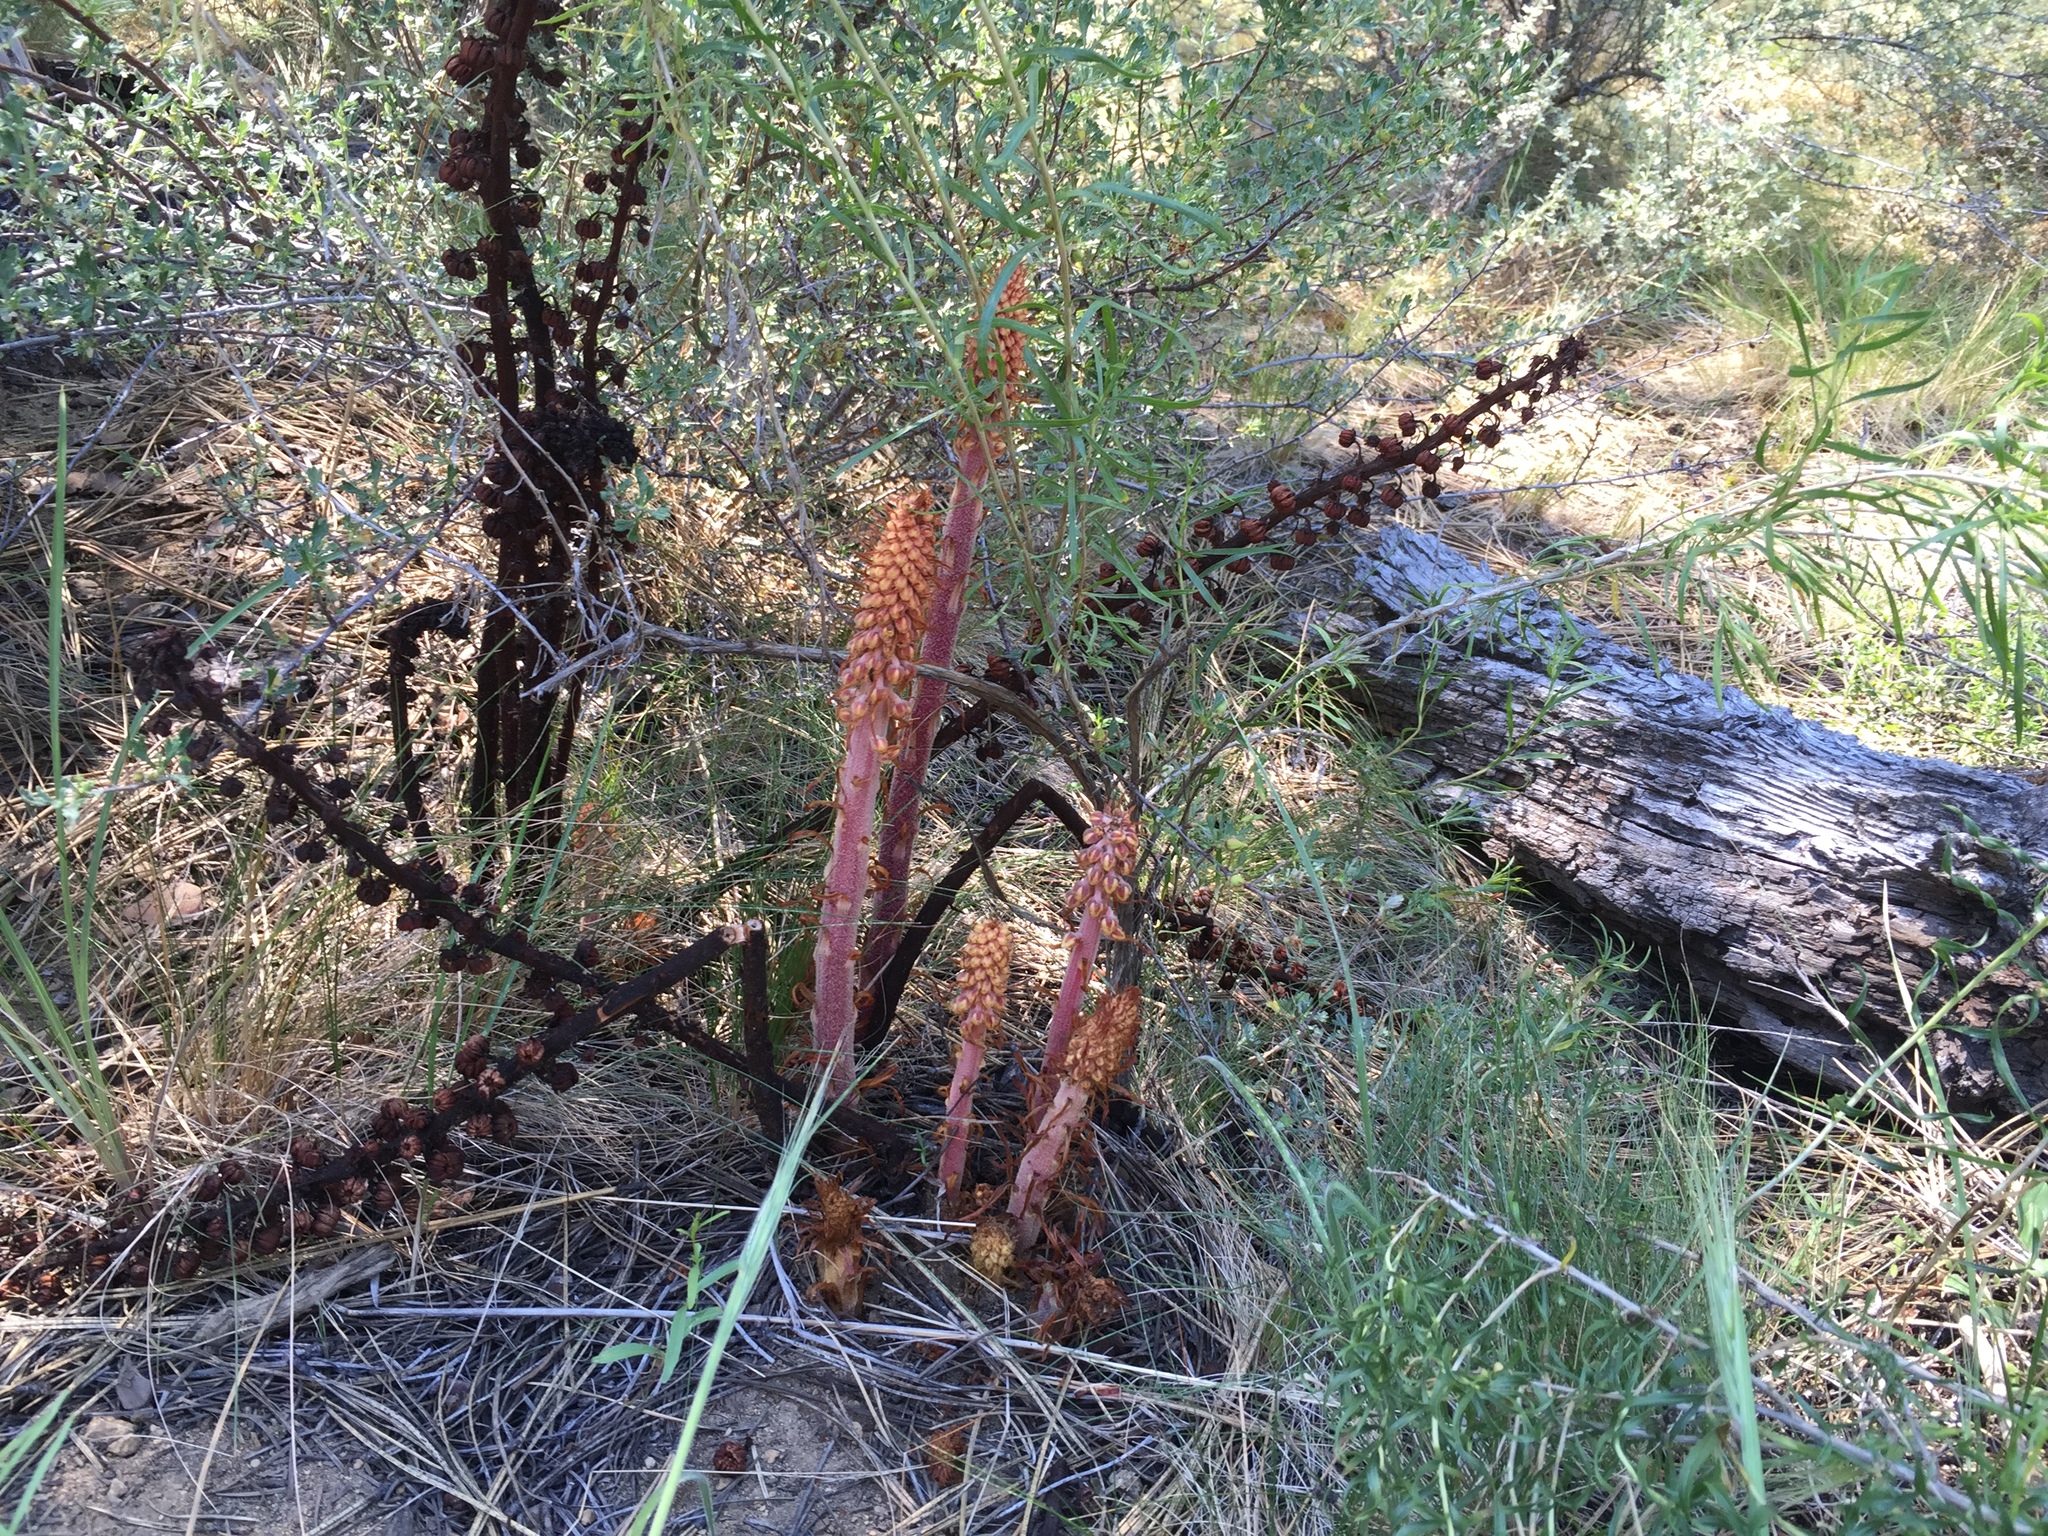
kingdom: Plantae
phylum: Tracheophyta
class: Magnoliopsida
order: Ericales
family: Ericaceae
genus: Pterospora
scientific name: Pterospora andromedea
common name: Giant bird's-nest
